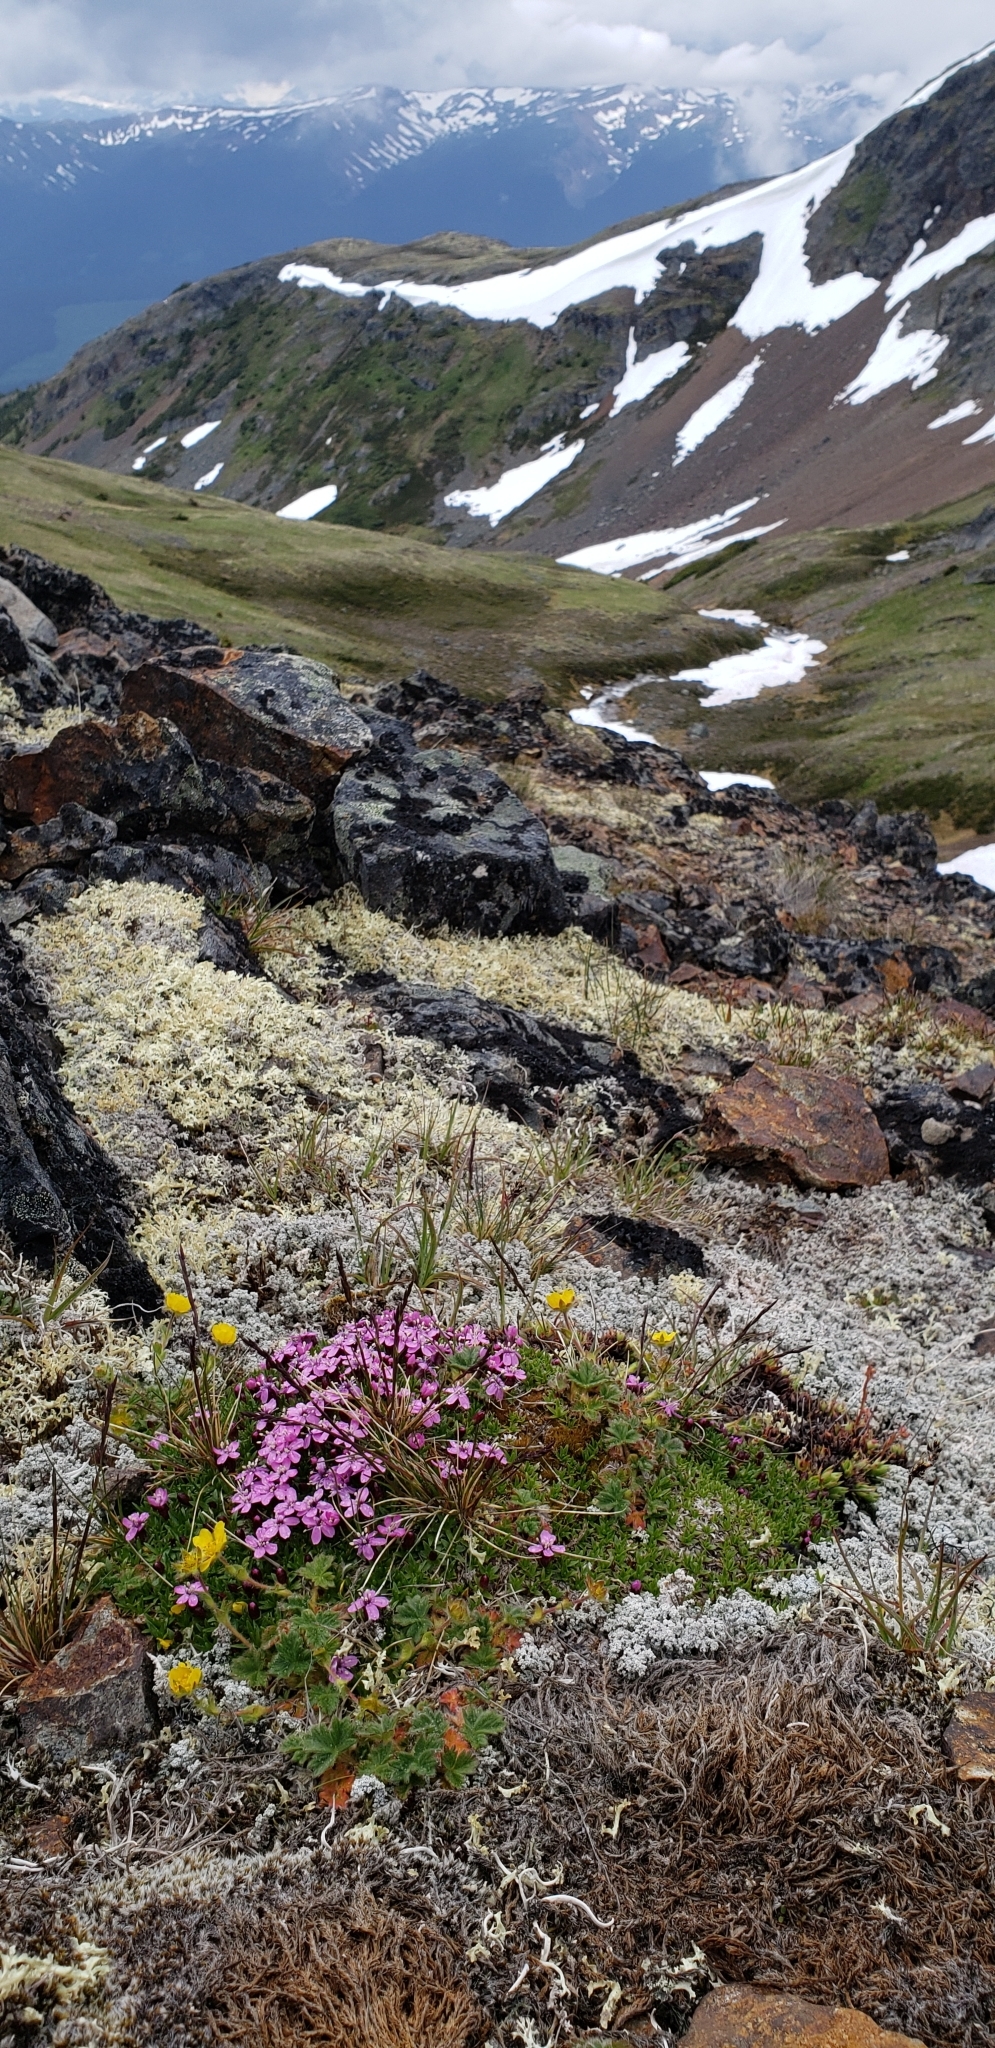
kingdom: Plantae
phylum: Tracheophyta
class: Magnoliopsida
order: Caryophyllales
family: Caryophyllaceae
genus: Silene
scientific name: Silene acaulis
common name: Moss campion
